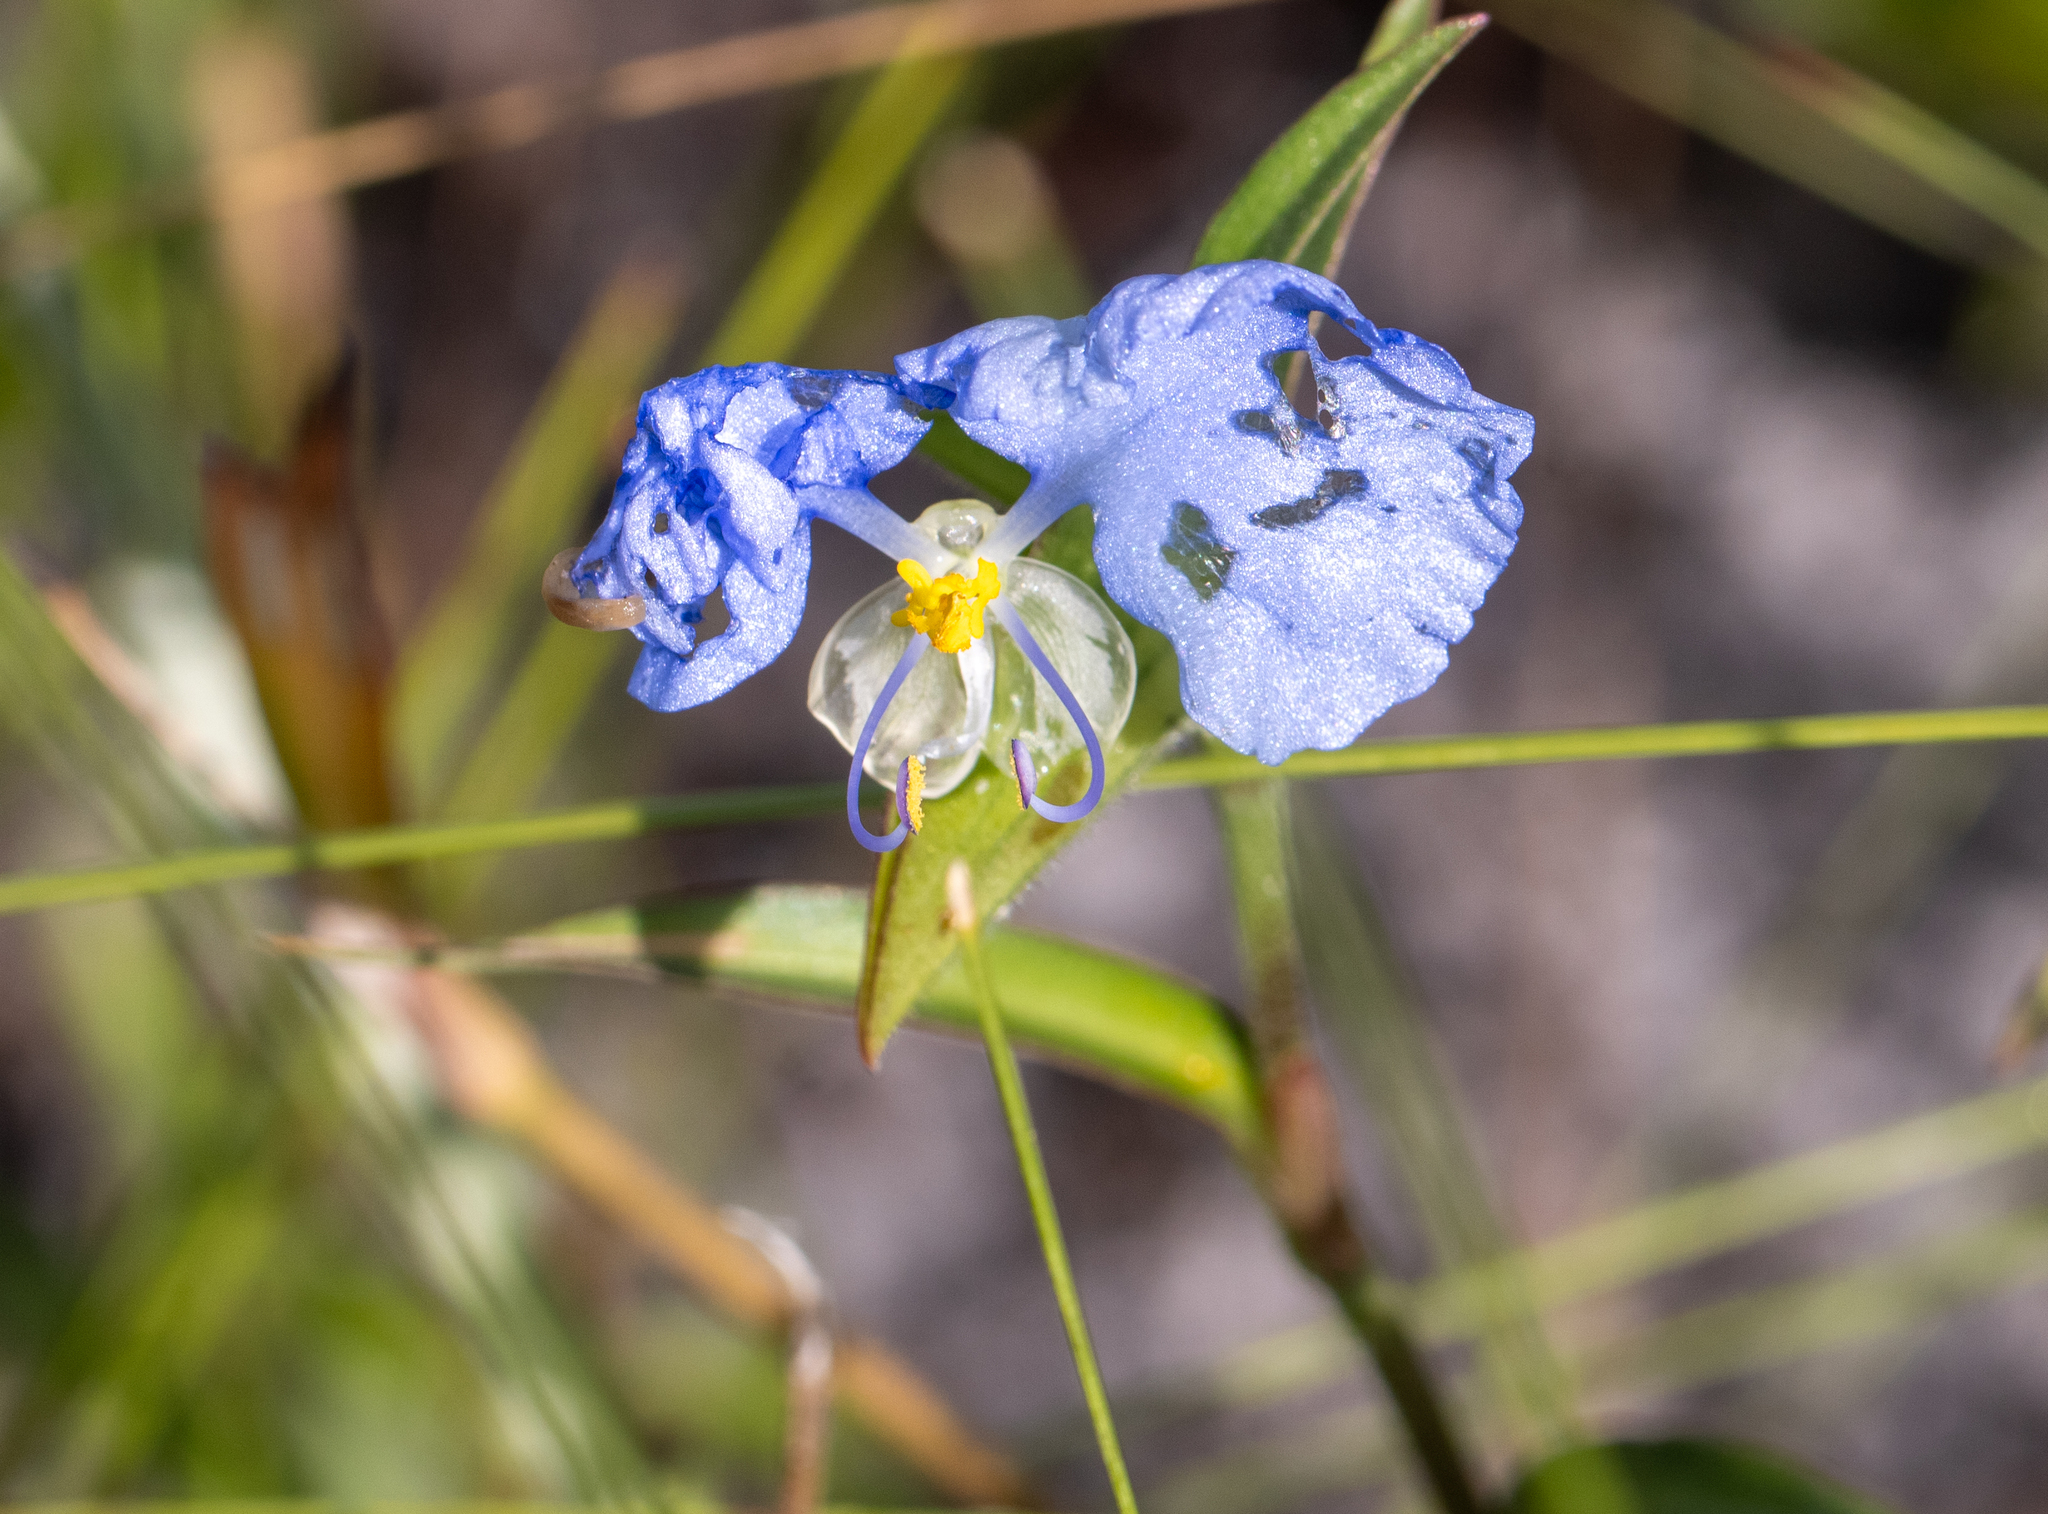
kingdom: Plantae
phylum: Tracheophyta
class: Liliopsida
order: Commelinales
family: Commelinaceae
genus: Commelina
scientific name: Commelina erecta
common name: Blousel blommetjie
